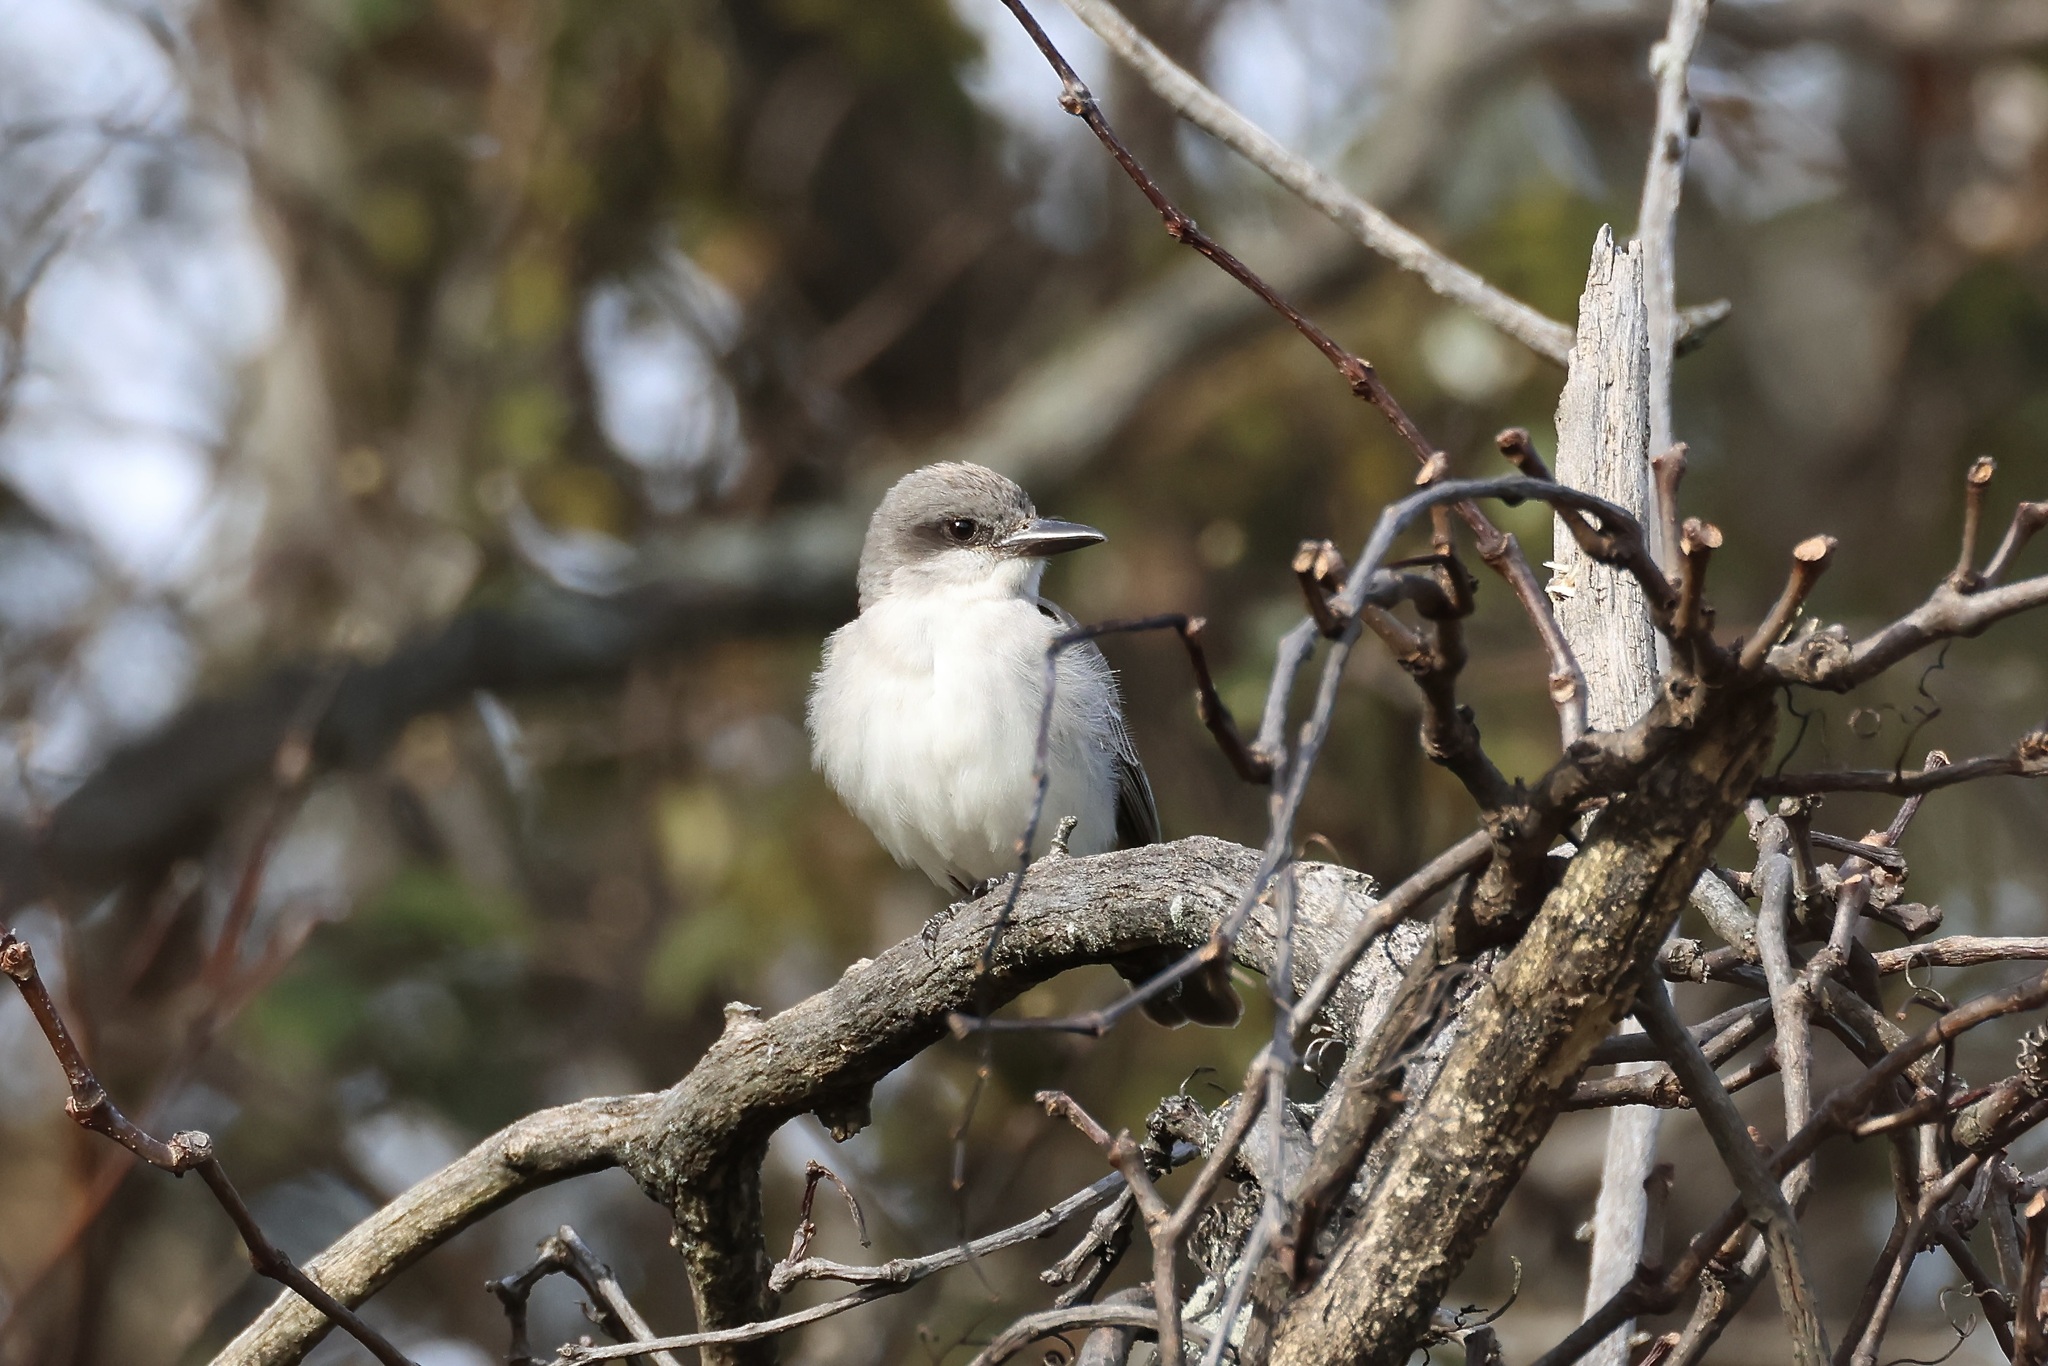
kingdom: Animalia
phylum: Chordata
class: Aves
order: Passeriformes
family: Tyrannidae
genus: Tyrannus
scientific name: Tyrannus dominicensis
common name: Gray kingbird
